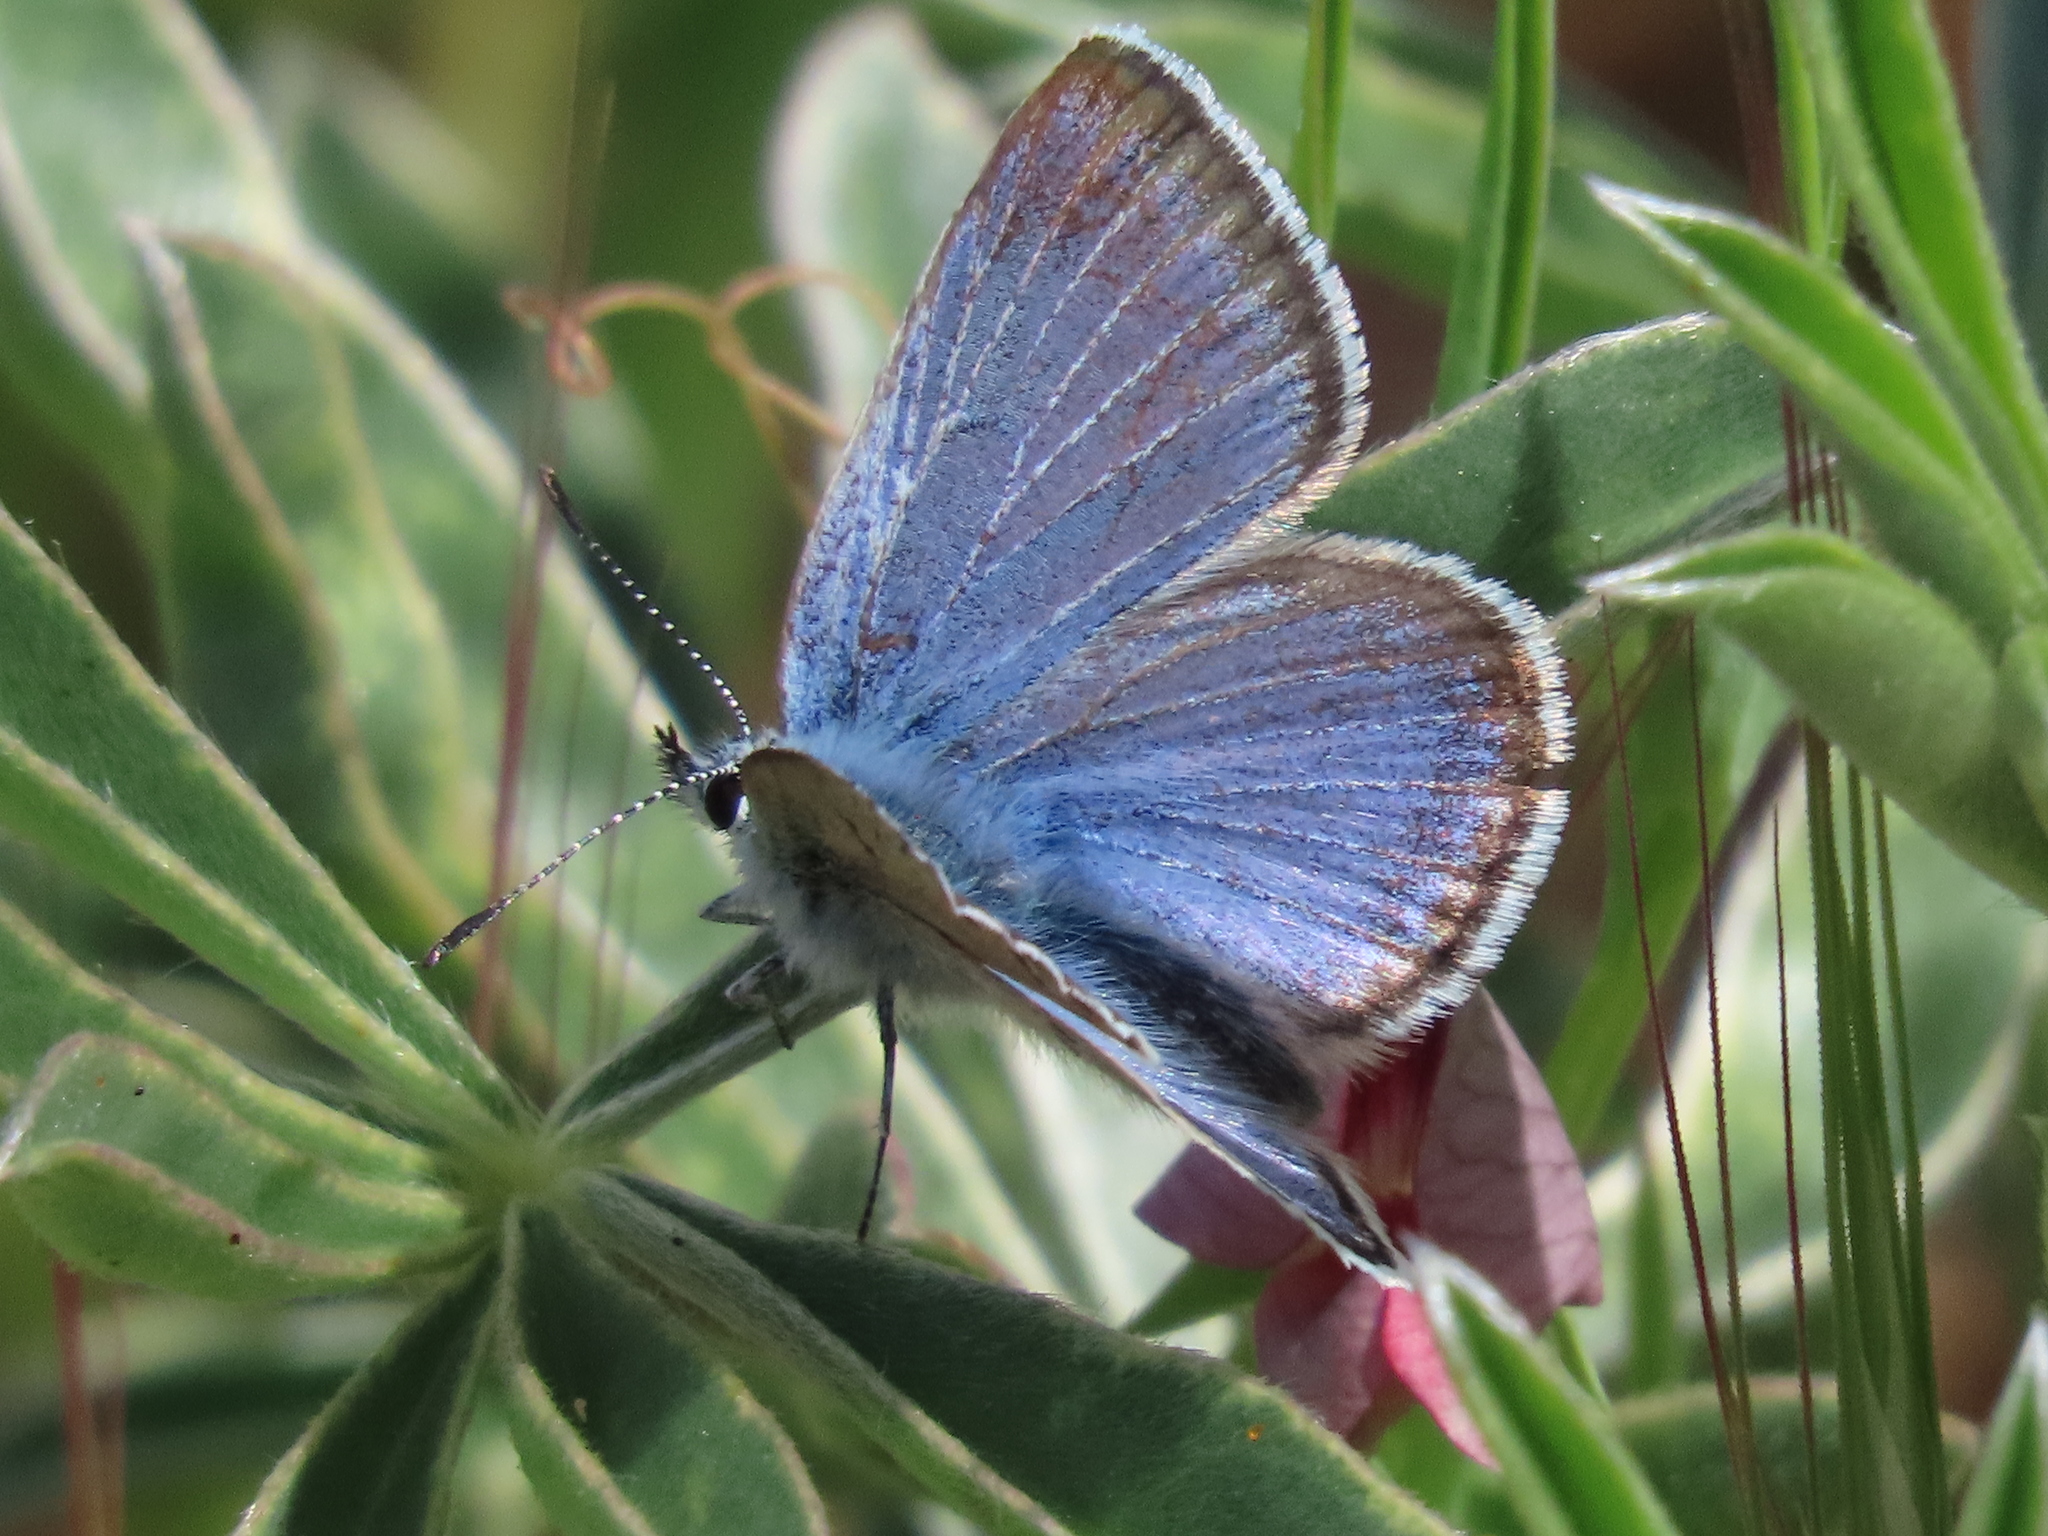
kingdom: Animalia
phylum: Arthropoda
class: Insecta
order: Lepidoptera
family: Lycaenidae
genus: Icaricia
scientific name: Icaricia icarioides
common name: Boisduval's blue
